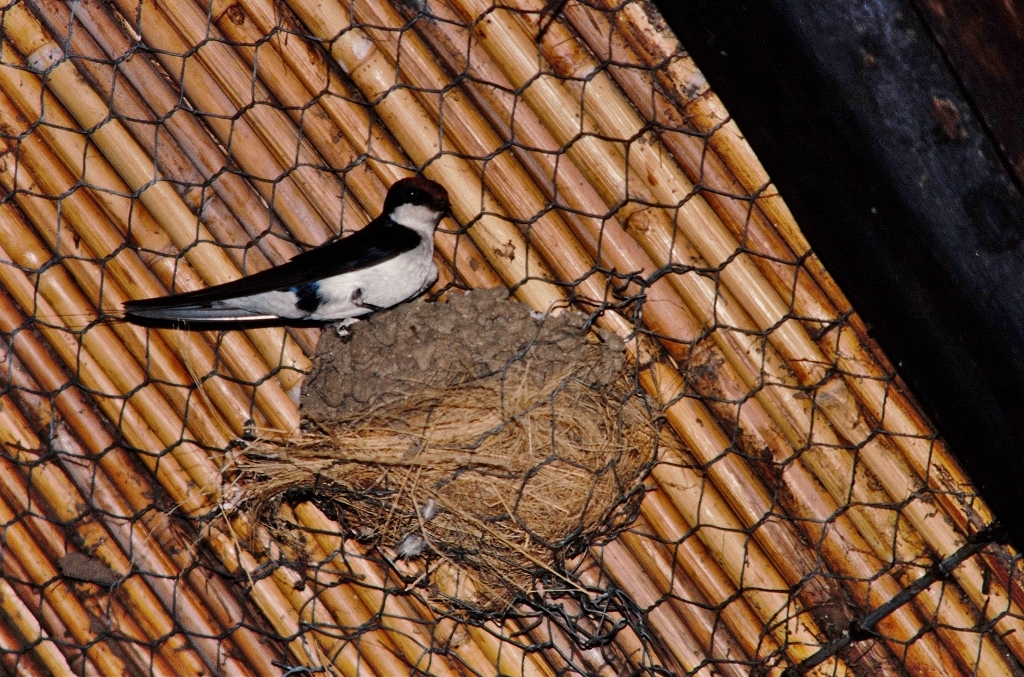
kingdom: Animalia
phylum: Chordata
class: Aves
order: Passeriformes
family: Hirundinidae
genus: Hirundo
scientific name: Hirundo smithii
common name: Wire-tailed swallow
